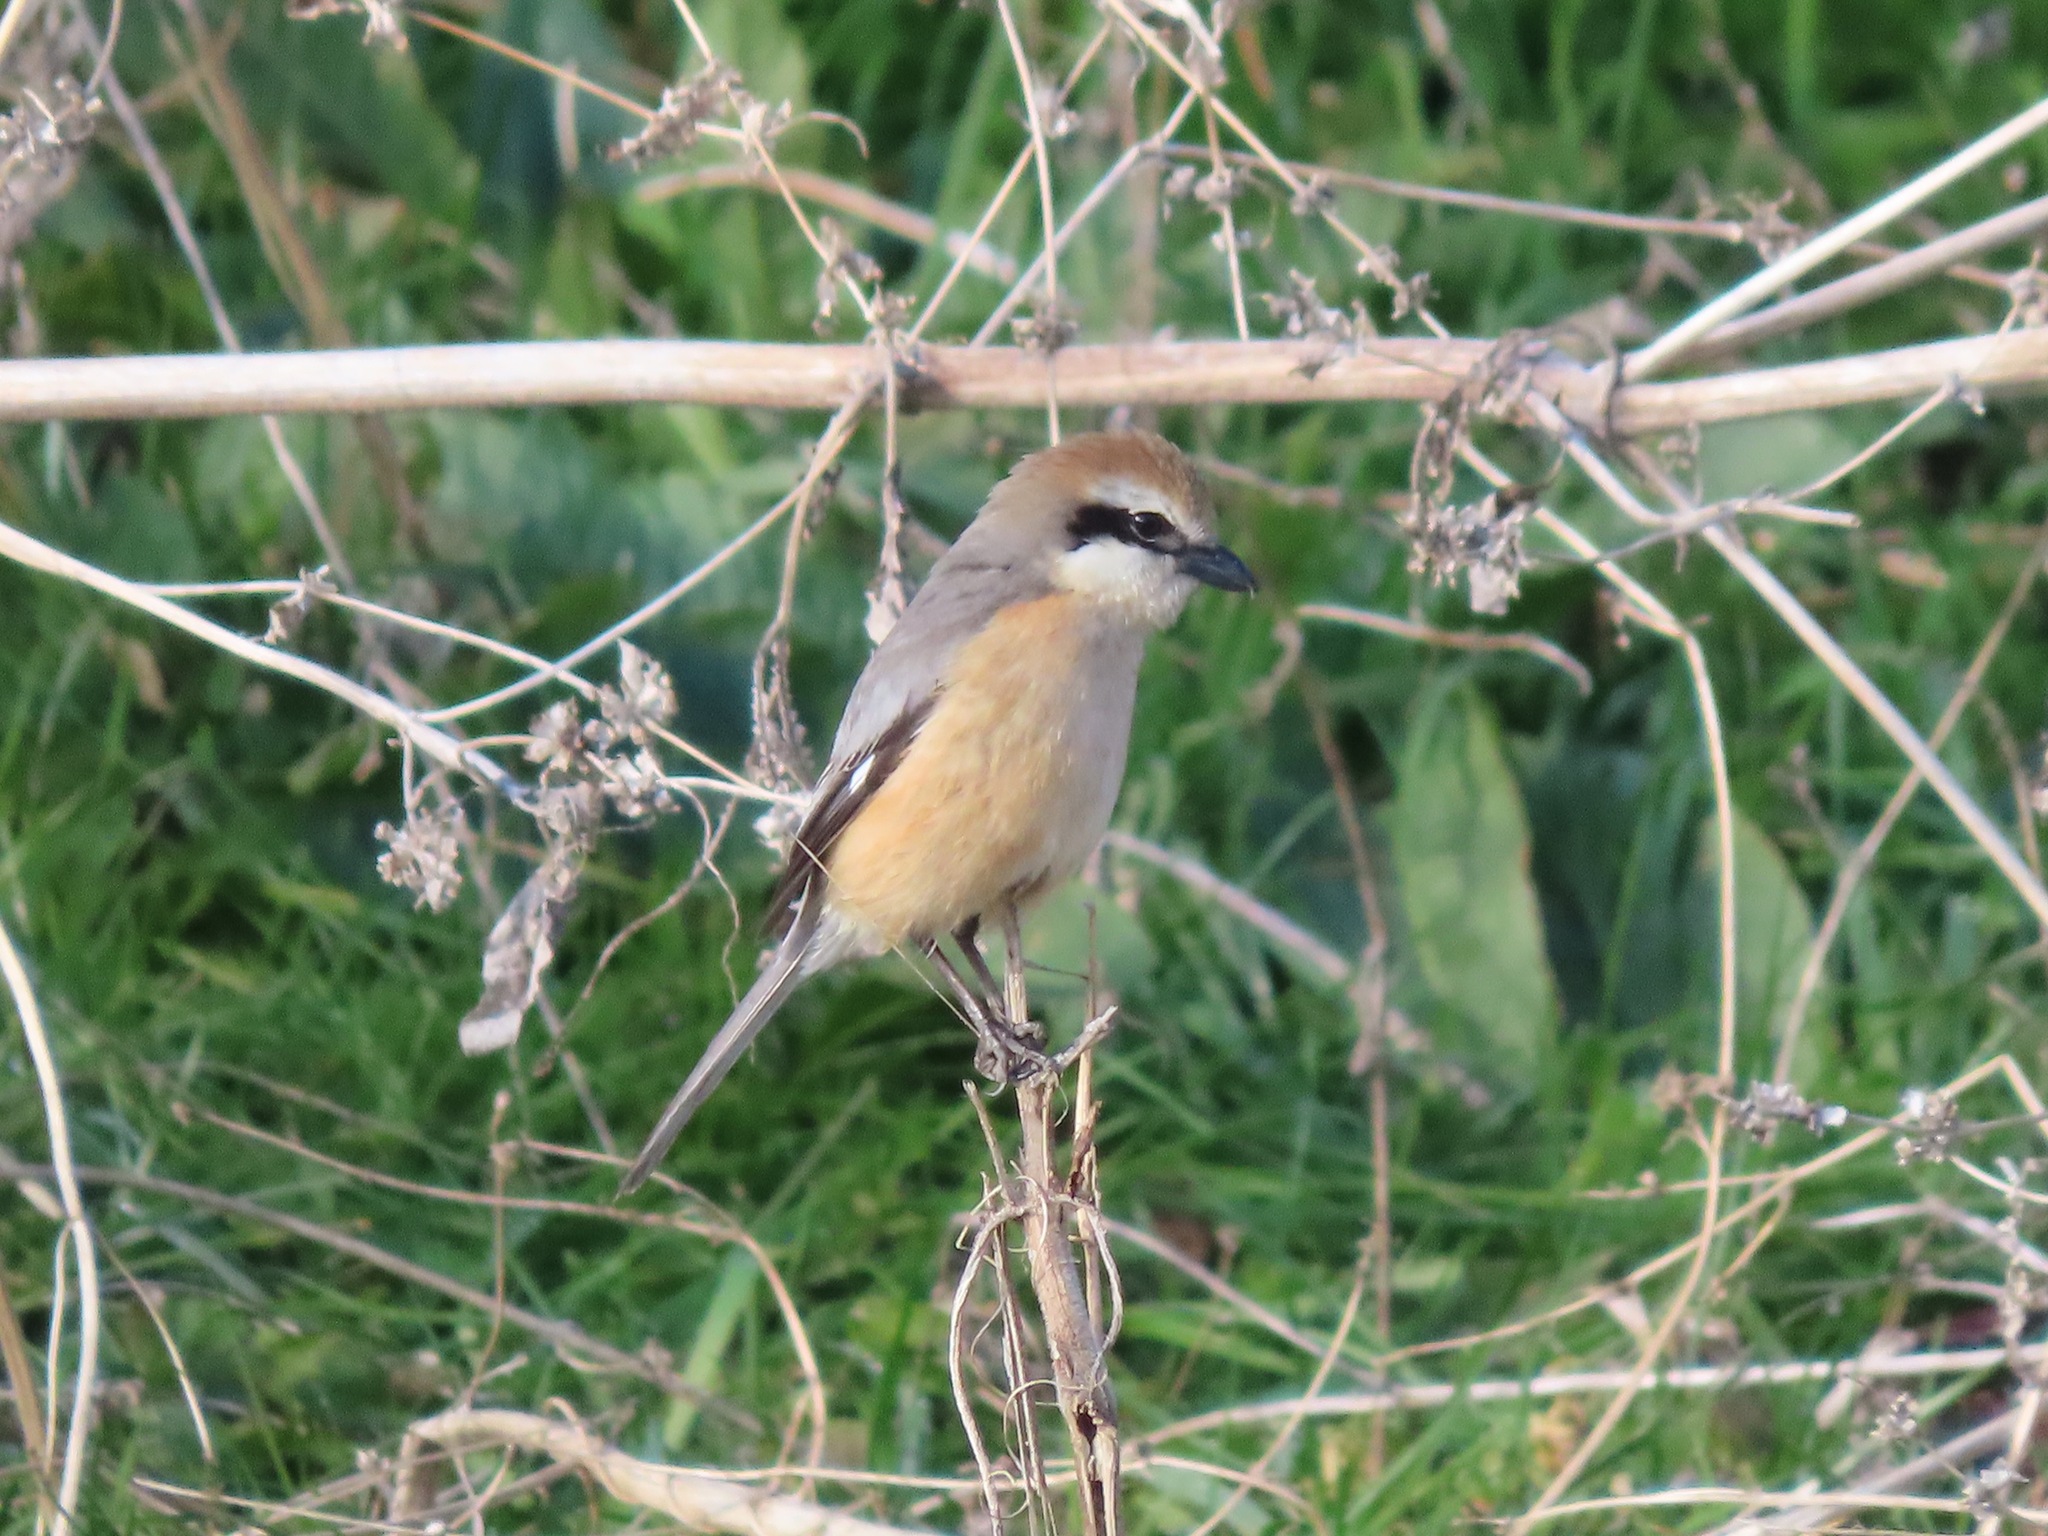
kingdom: Animalia
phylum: Chordata
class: Aves
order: Passeriformes
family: Laniidae
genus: Lanius
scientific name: Lanius bucephalus
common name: Bull-headed shrike
